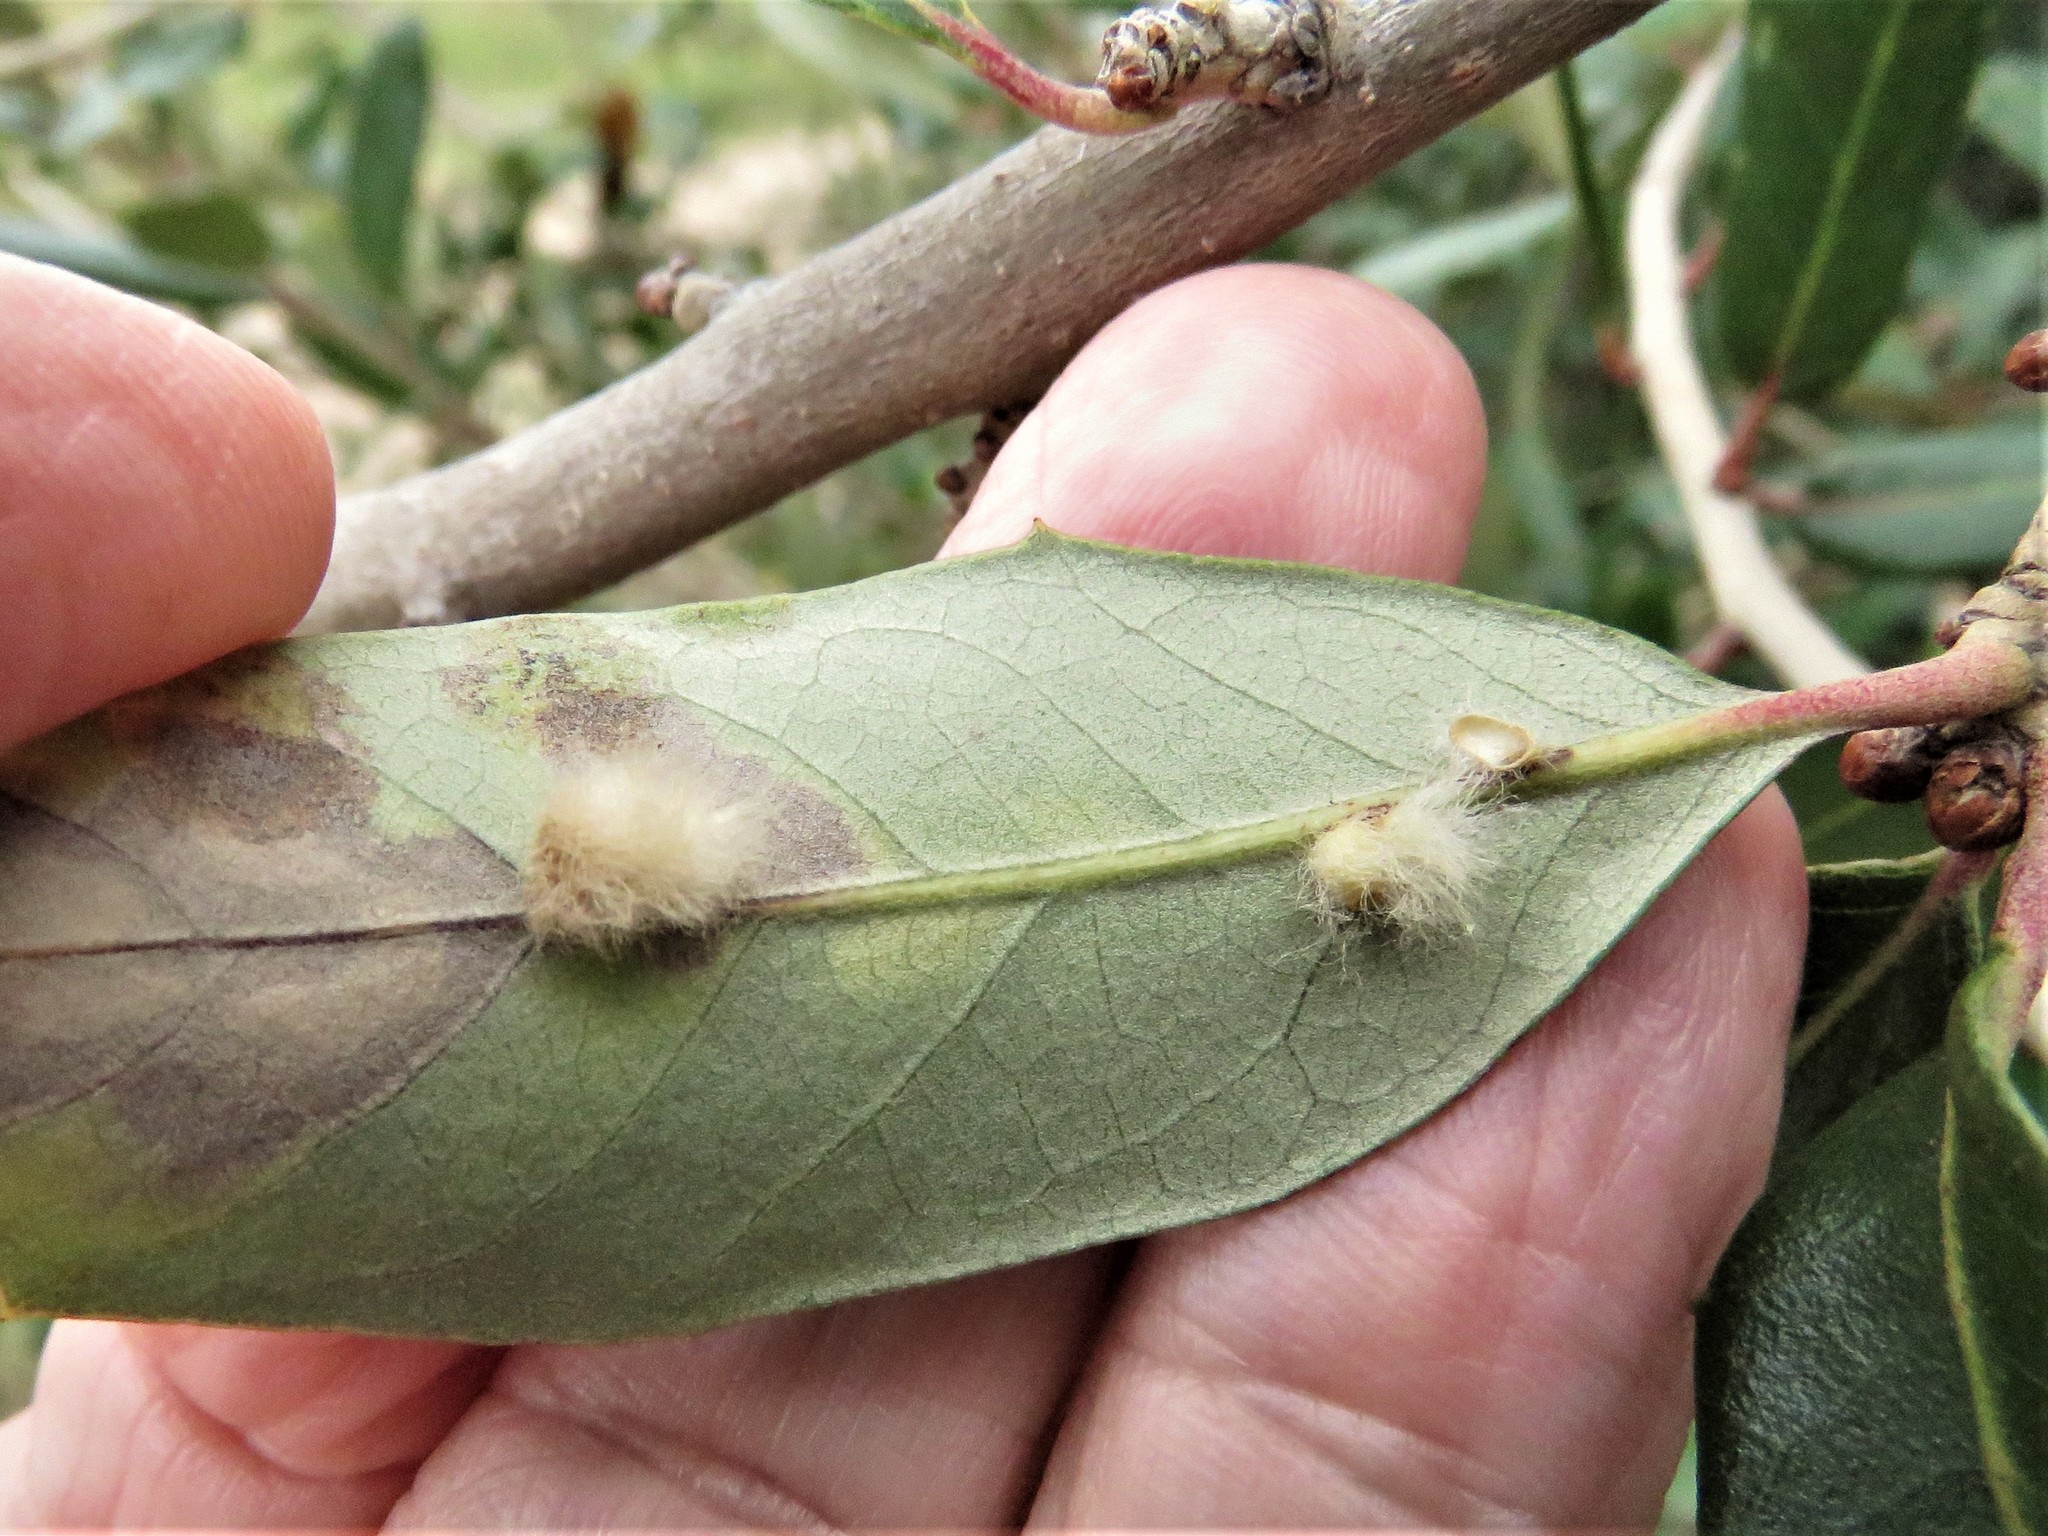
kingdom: Animalia
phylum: Arthropoda
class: Insecta
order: Hymenoptera
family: Cynipidae
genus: Andricus
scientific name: Andricus Druon quercuslanigerum
